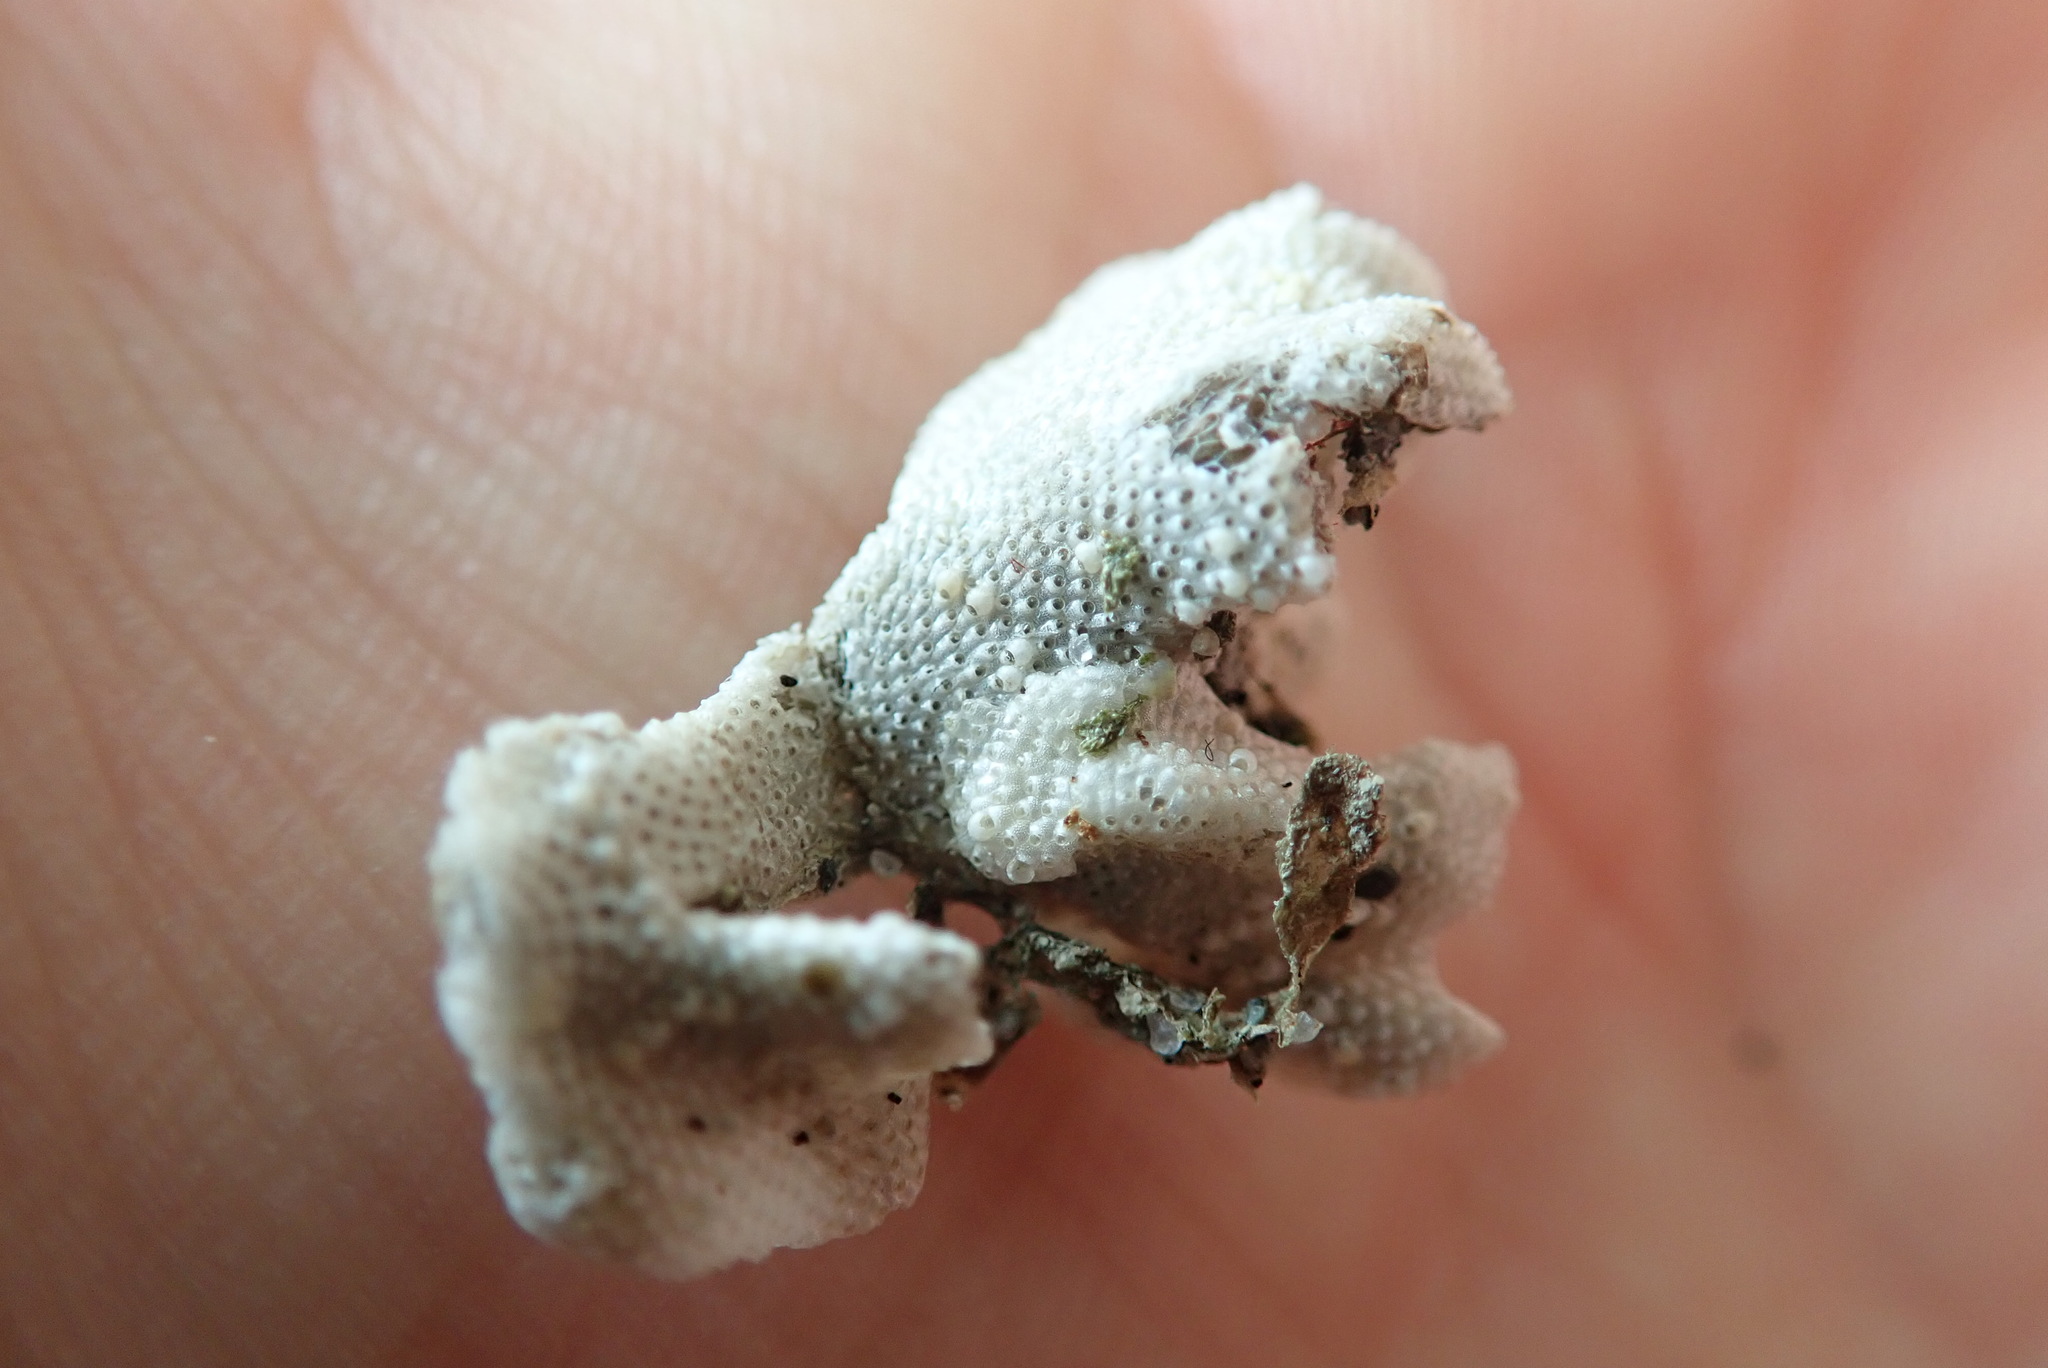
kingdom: Animalia
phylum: Bryozoa
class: Gymnolaemata
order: Cheilostomatida
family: Pacificincolidae
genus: Primavelans
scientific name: Primavelans insculpta
